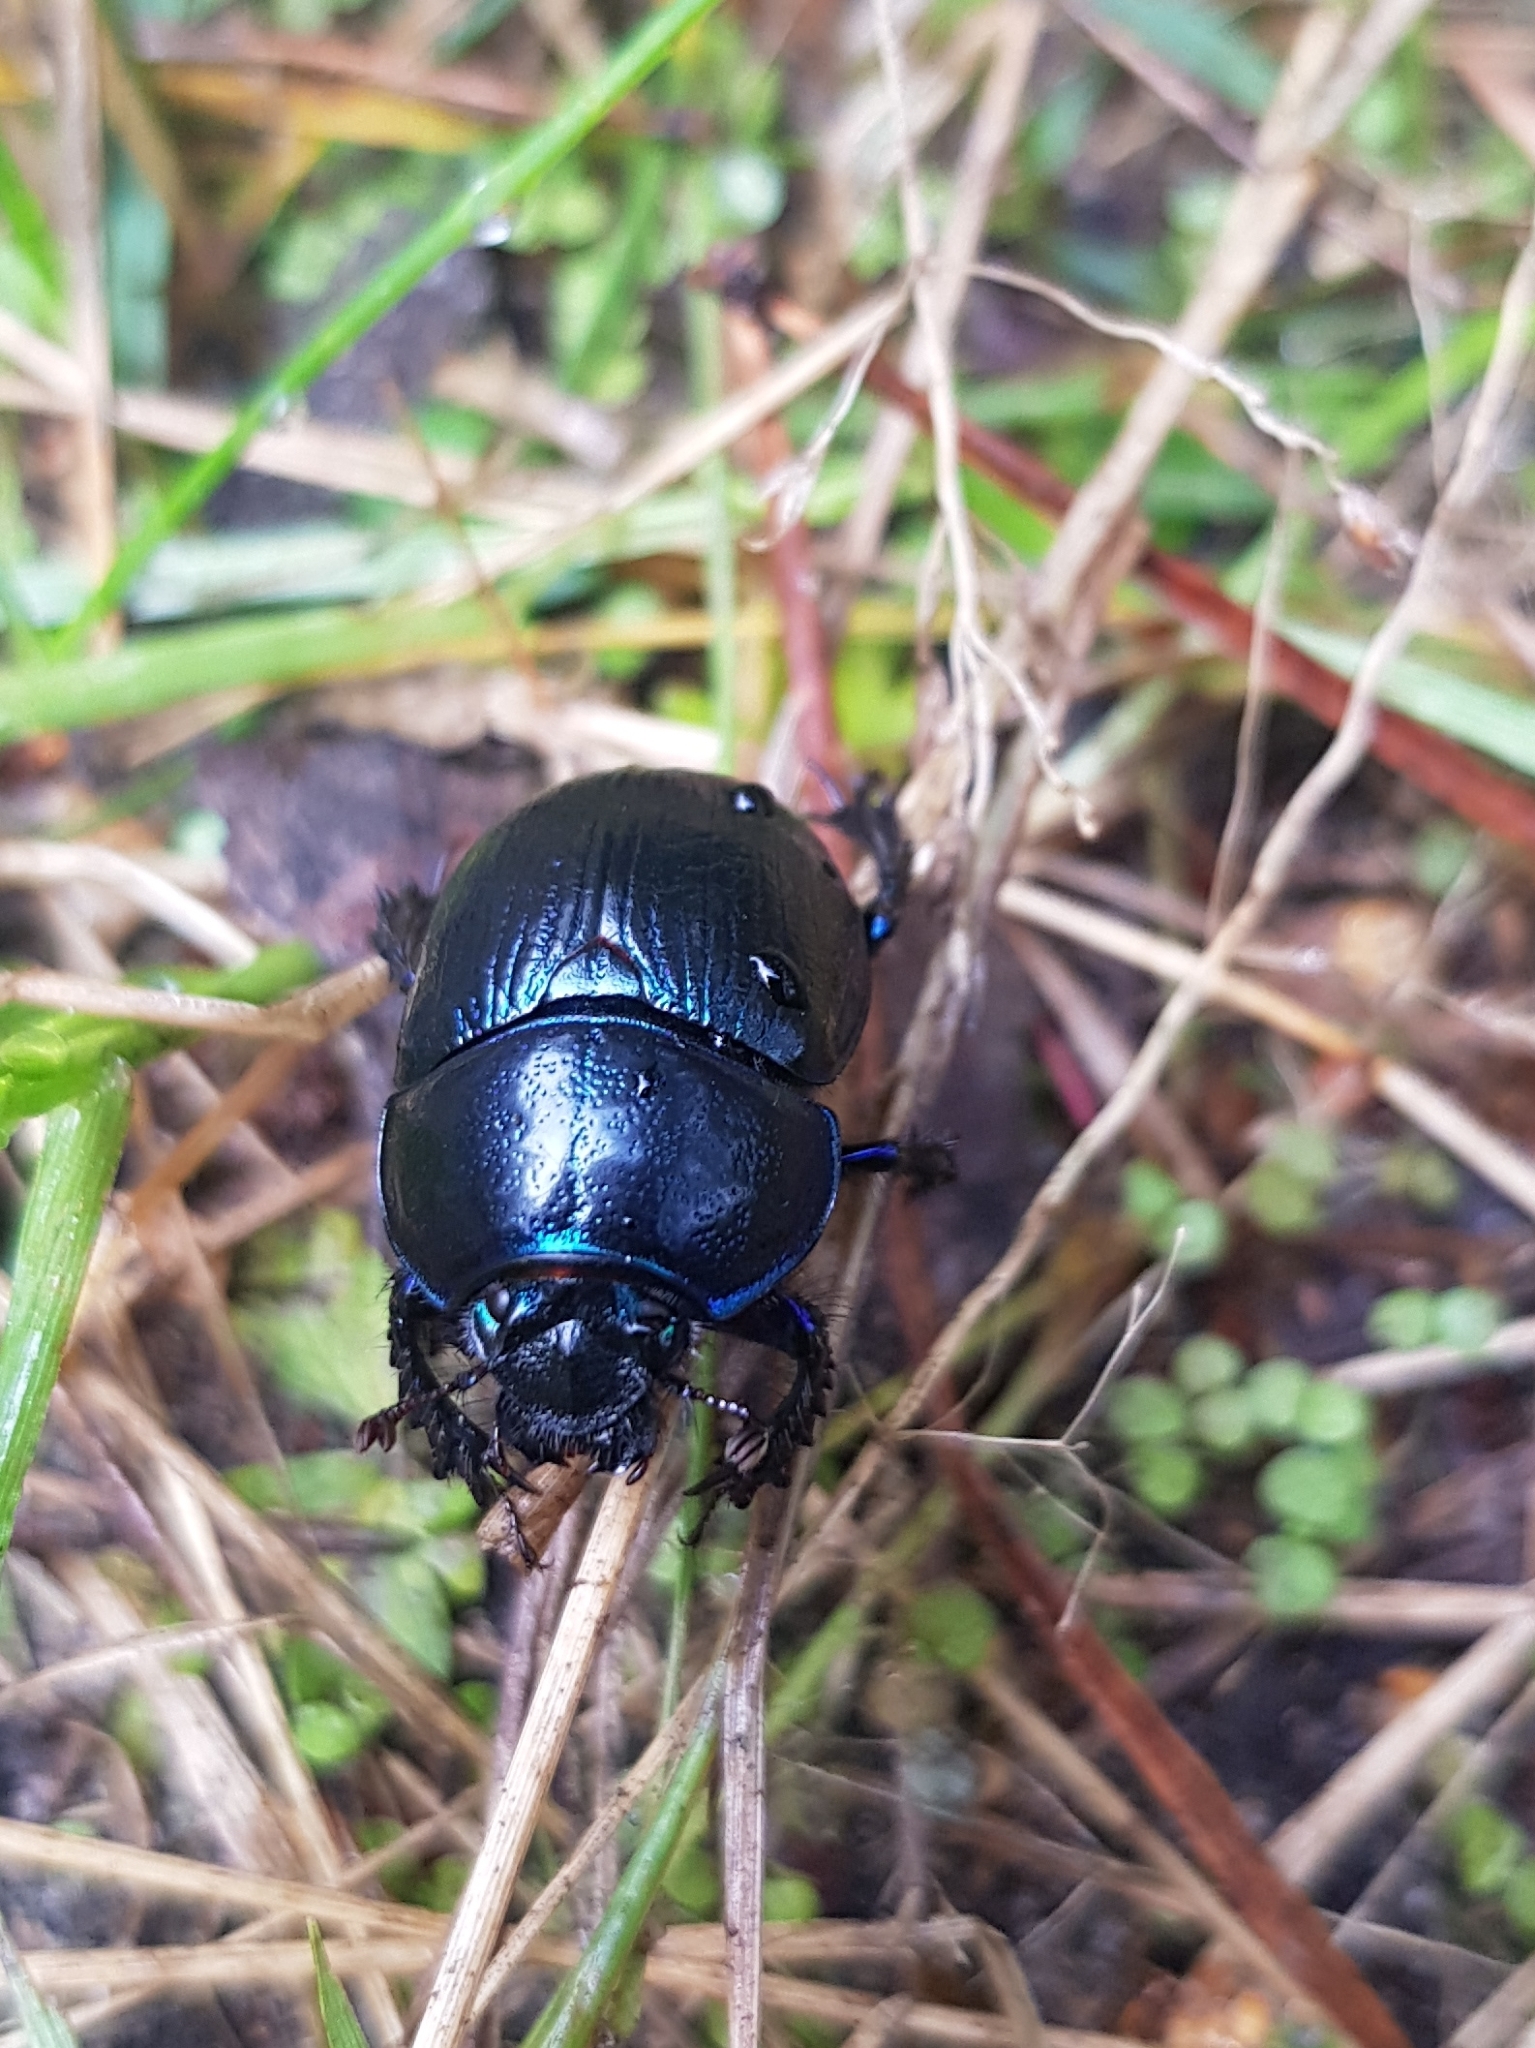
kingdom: Animalia
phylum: Arthropoda
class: Insecta
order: Coleoptera
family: Geotrupidae
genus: Anoplotrupes
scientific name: Anoplotrupes stercorosus
